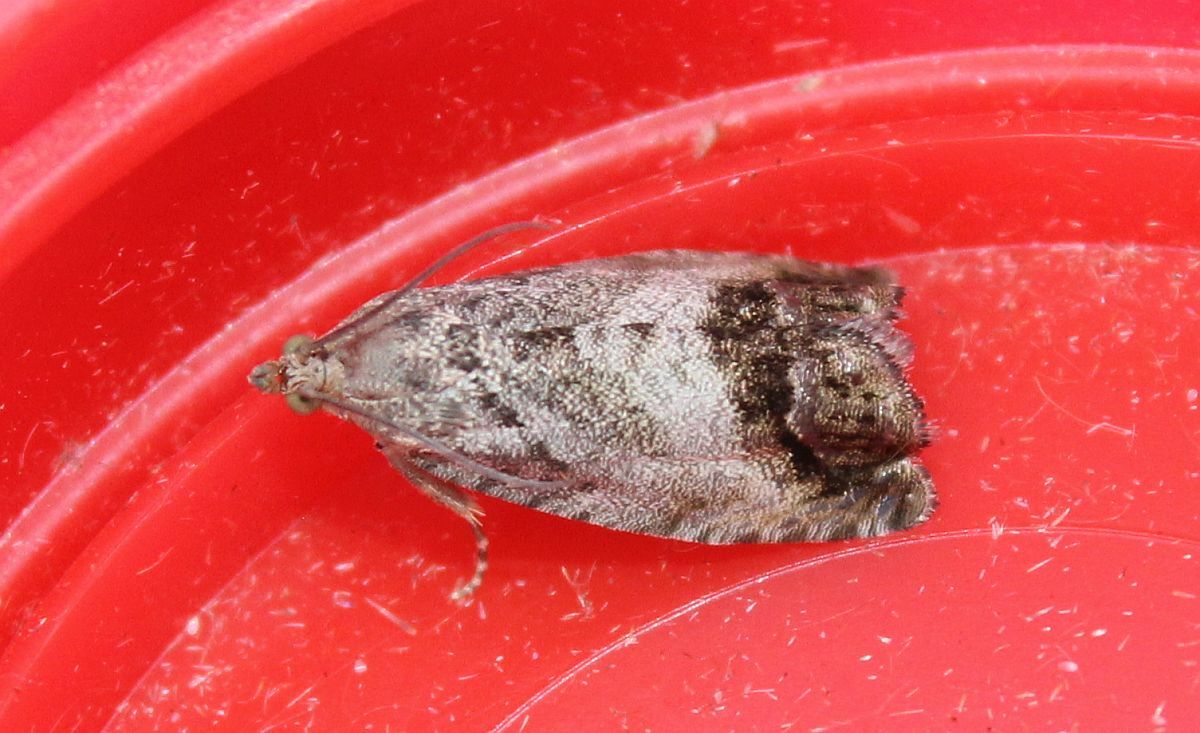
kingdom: Animalia
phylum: Arthropoda
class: Insecta
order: Lepidoptera
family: Tortricidae
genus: Cydia
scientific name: Cydia splendana
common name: De: kastanienwickler, eichenwickler es: oruga de la castaña fr: carpocapse des châtaignes it: cidia o tortrice tardiva delle castagne pt: bichado das castanhas gb: acorn moth, chestnut fruit tortrix
